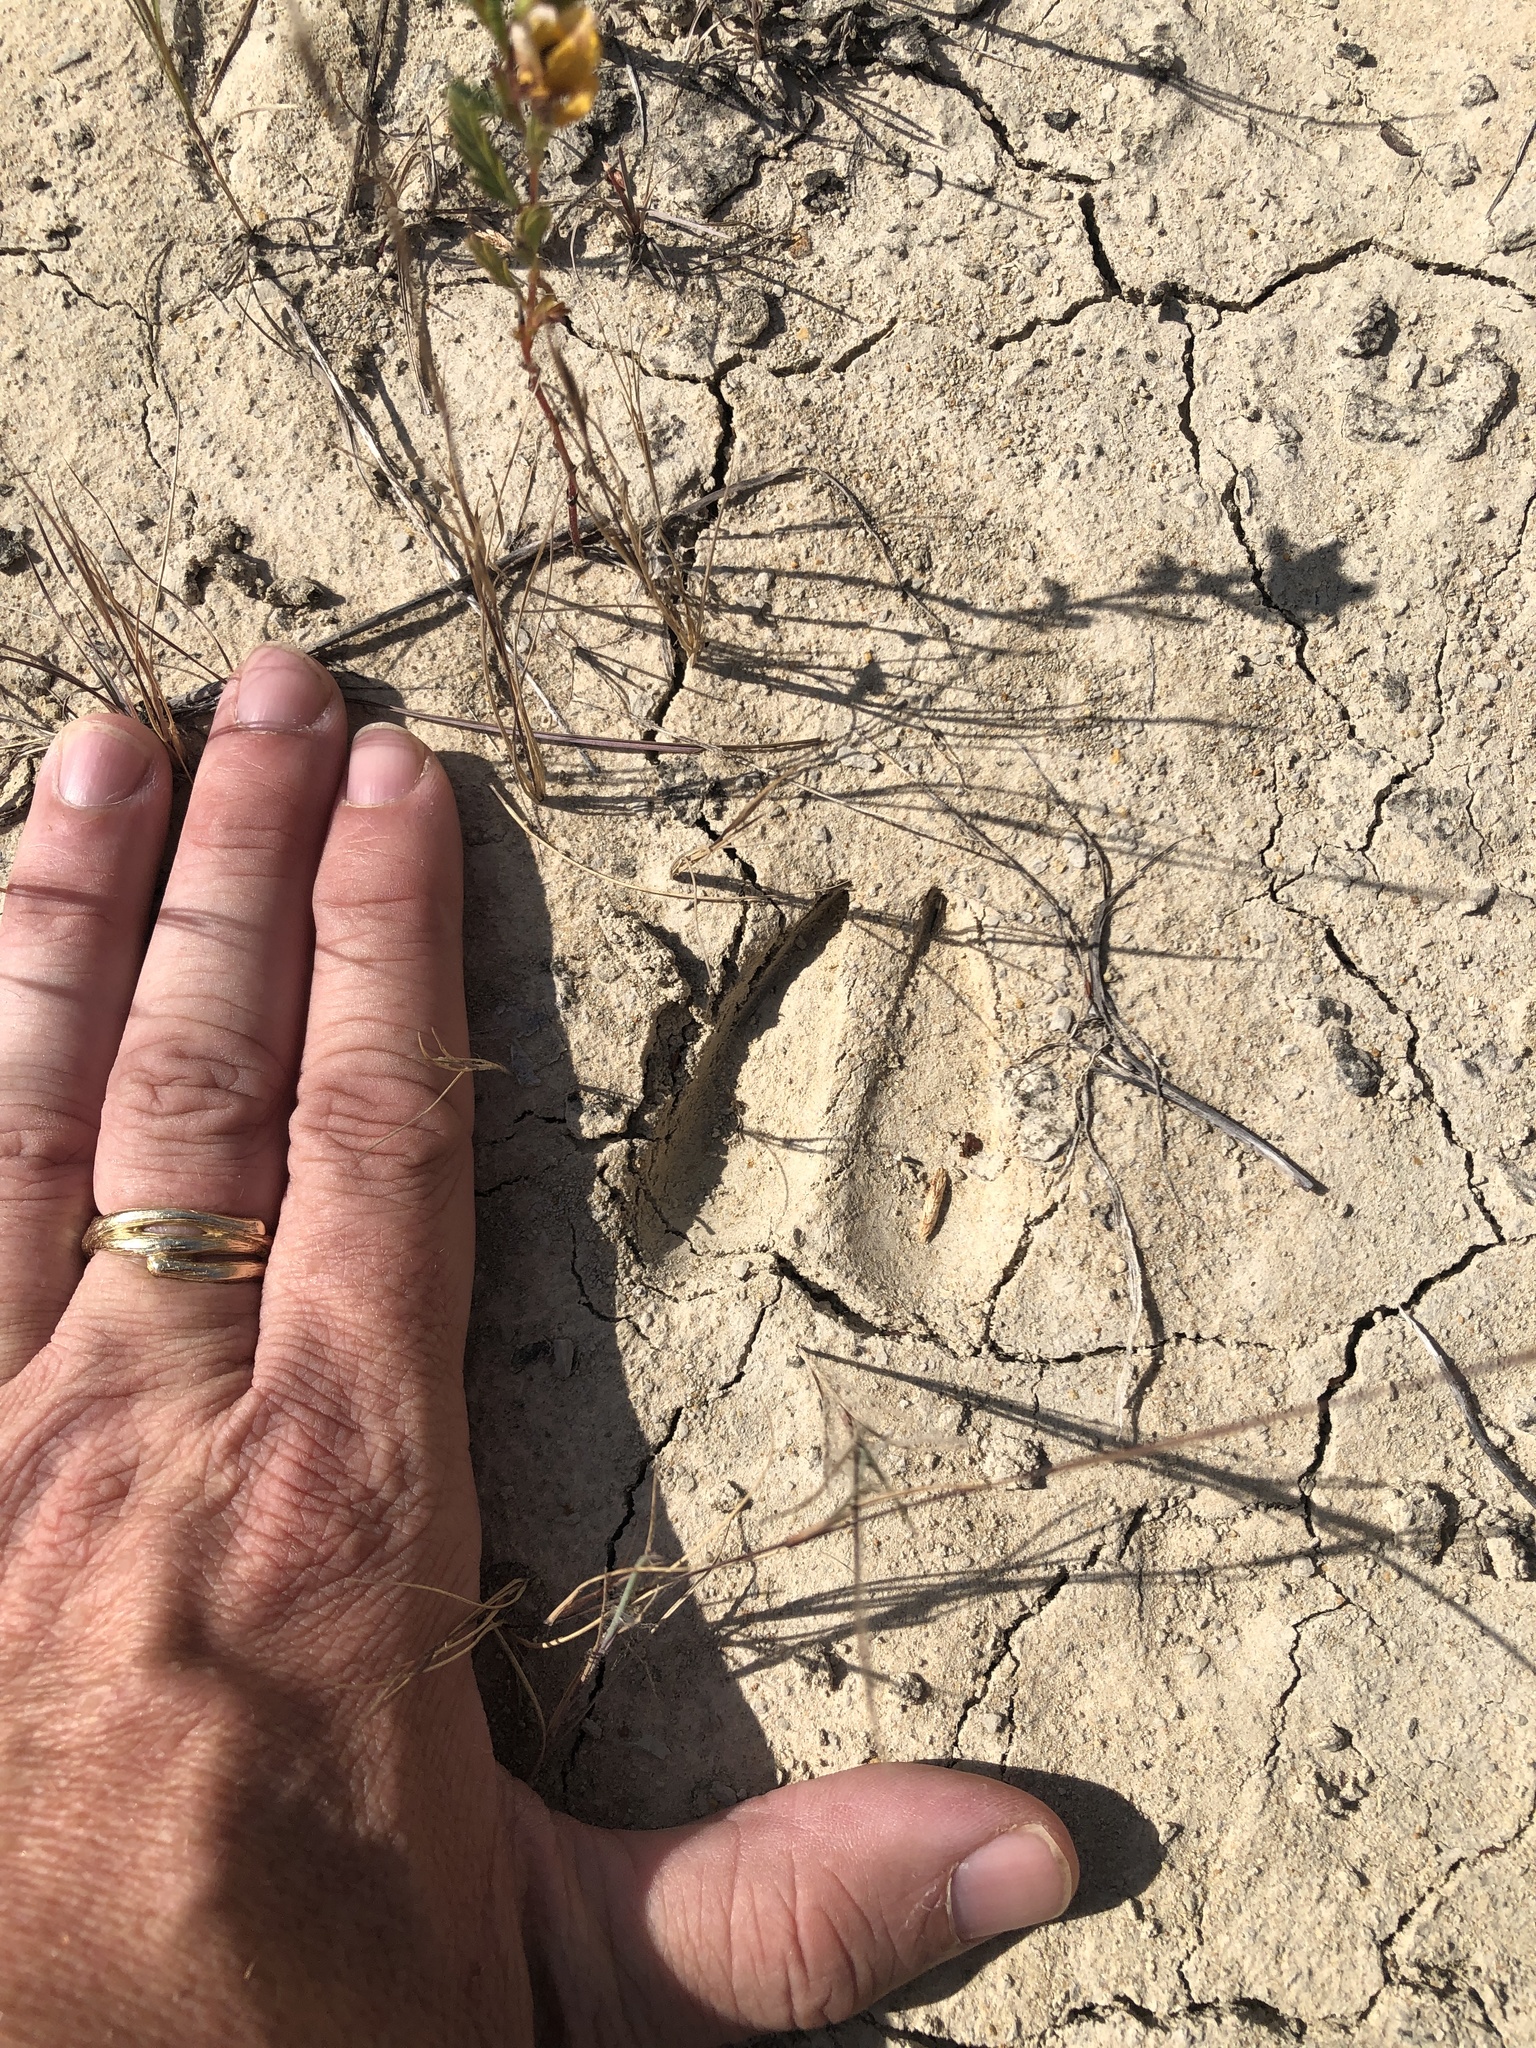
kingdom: Animalia
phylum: Chordata
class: Mammalia
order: Artiodactyla
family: Cervidae
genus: Odocoileus
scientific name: Odocoileus virginianus
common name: White-tailed deer
